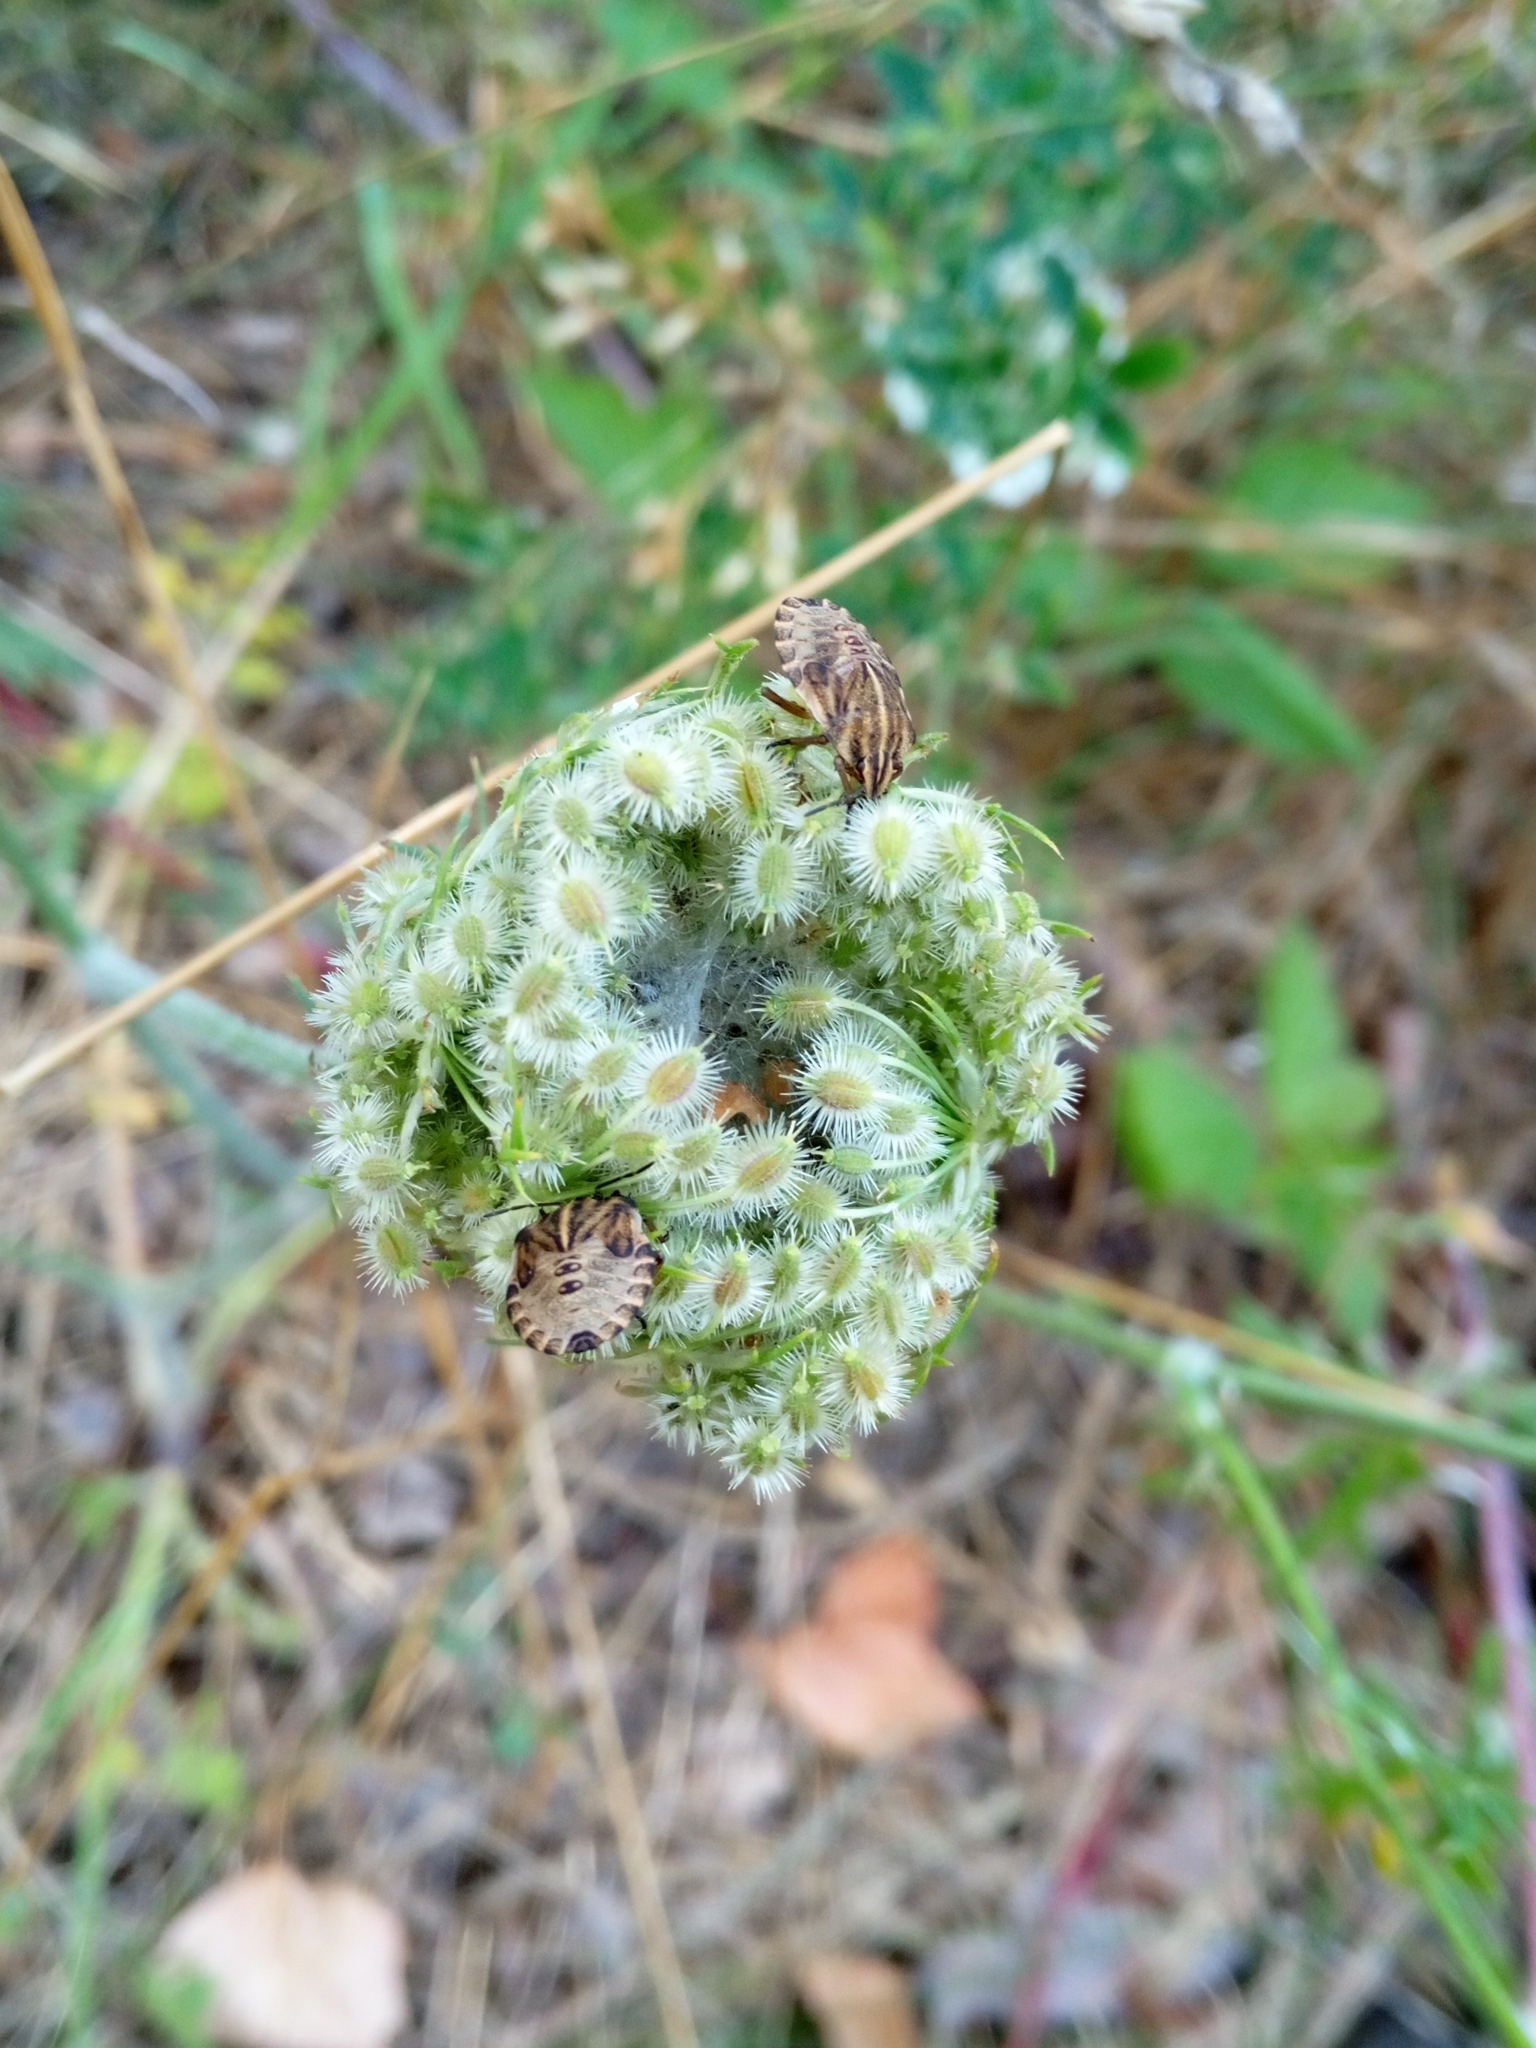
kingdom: Animalia
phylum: Arthropoda
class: Insecta
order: Hemiptera
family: Pentatomidae
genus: Graphosoma
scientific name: Graphosoma italicum
